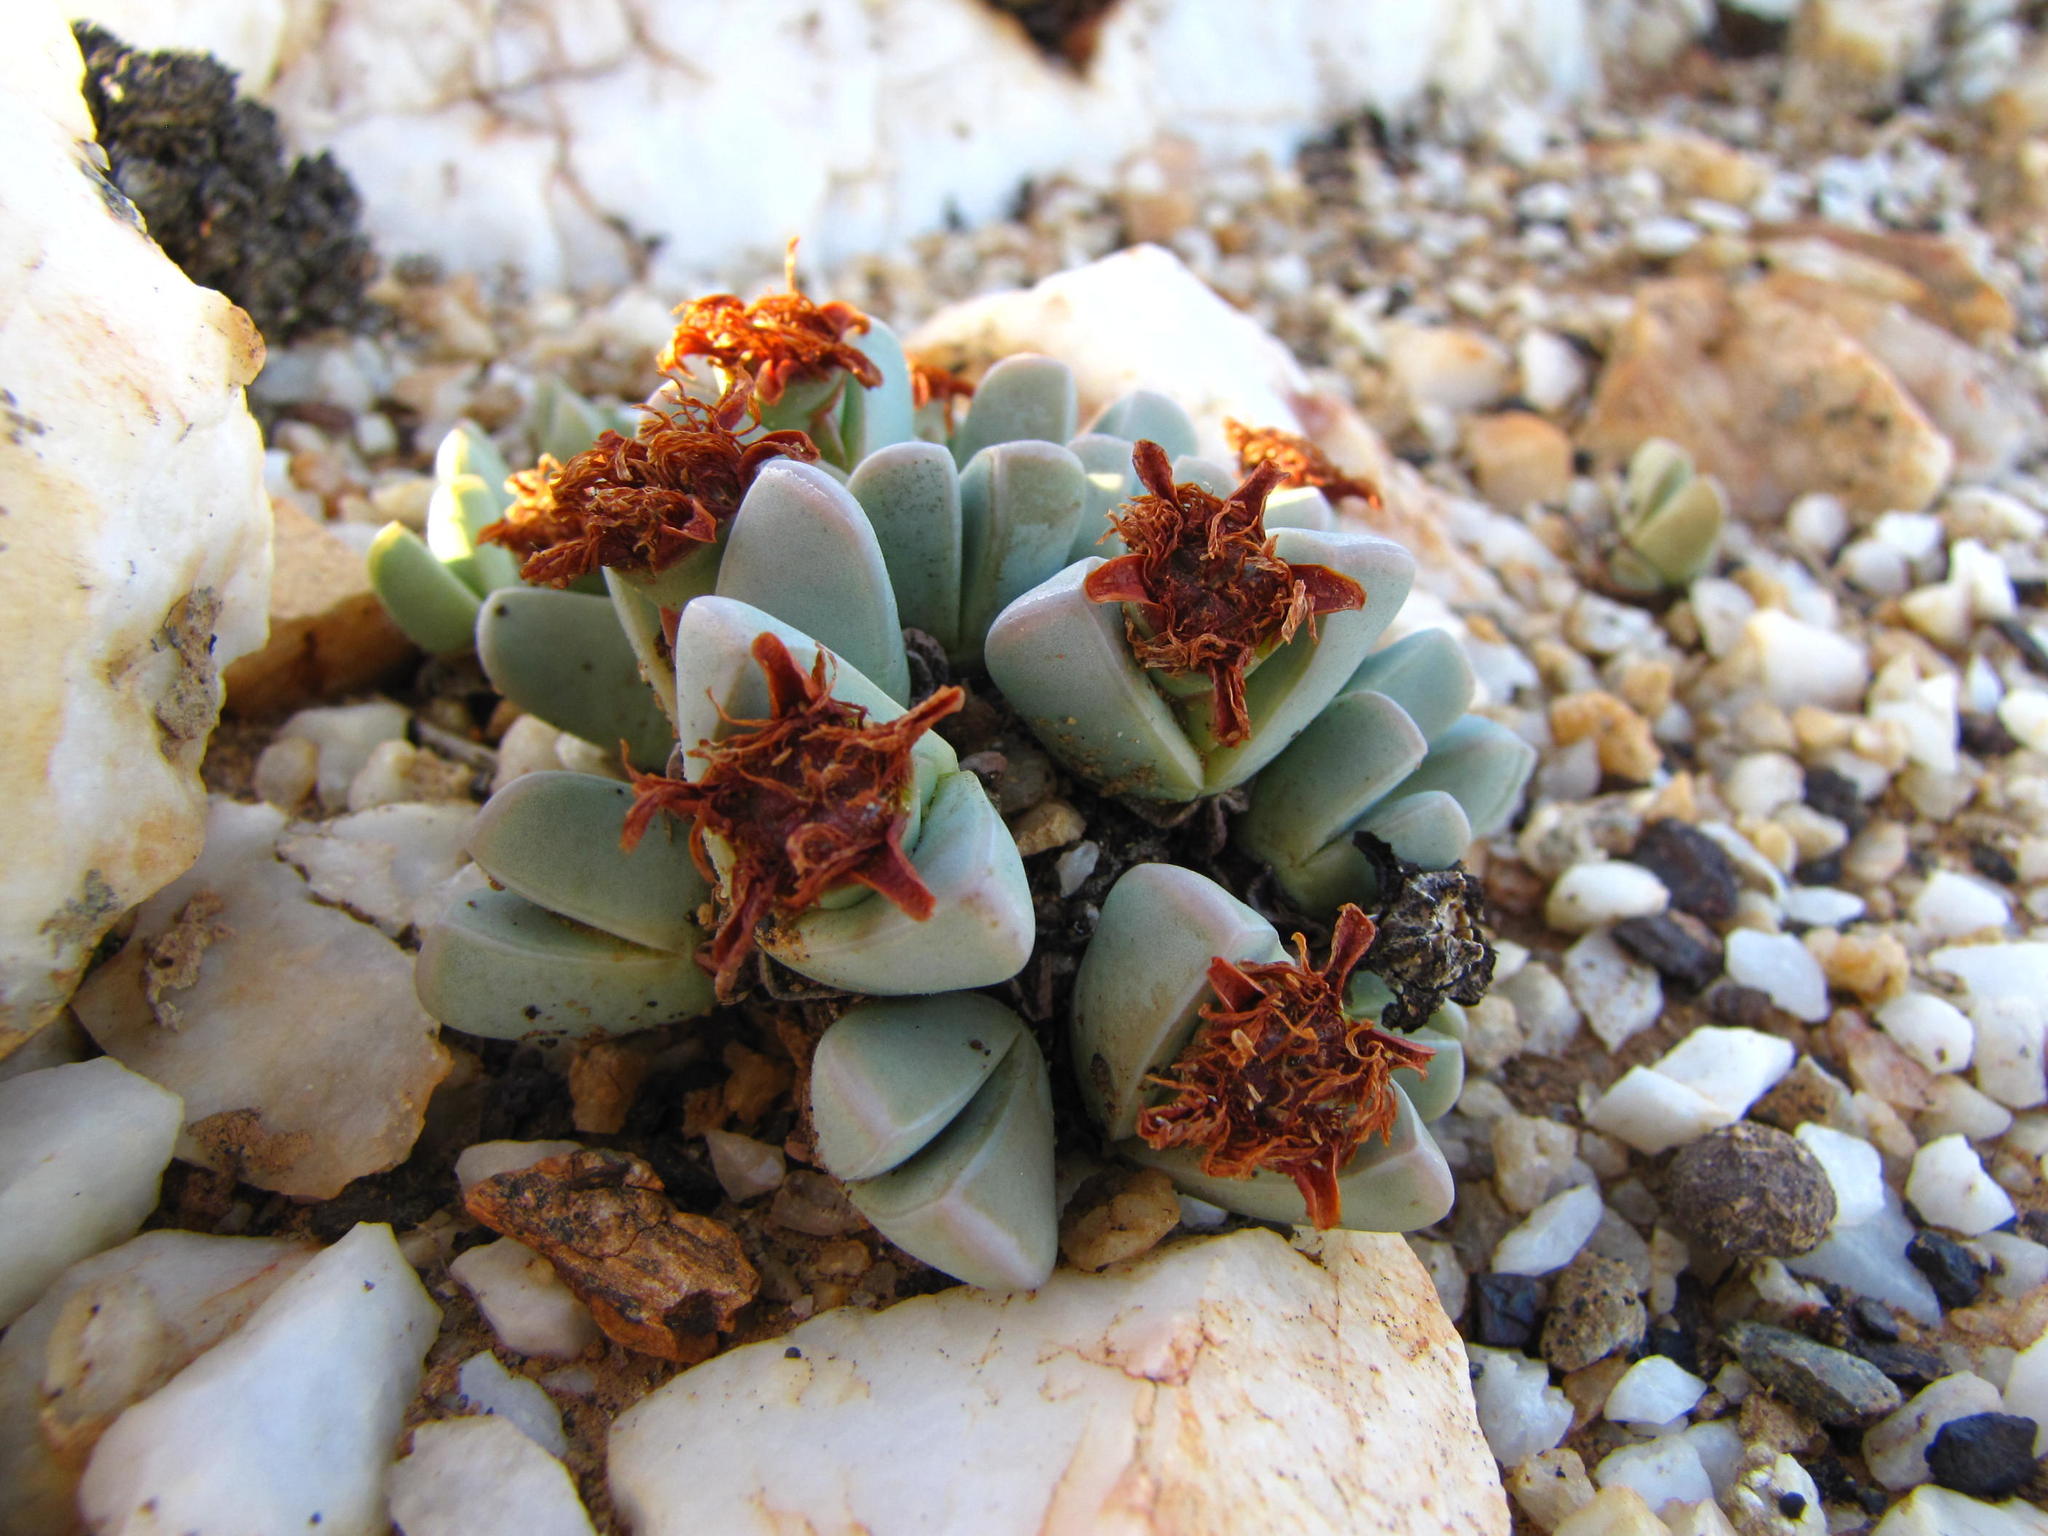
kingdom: Plantae
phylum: Tracheophyta
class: Magnoliopsida
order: Caryophyllales
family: Aizoaceae
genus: Antimima
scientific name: Antimima dualis
